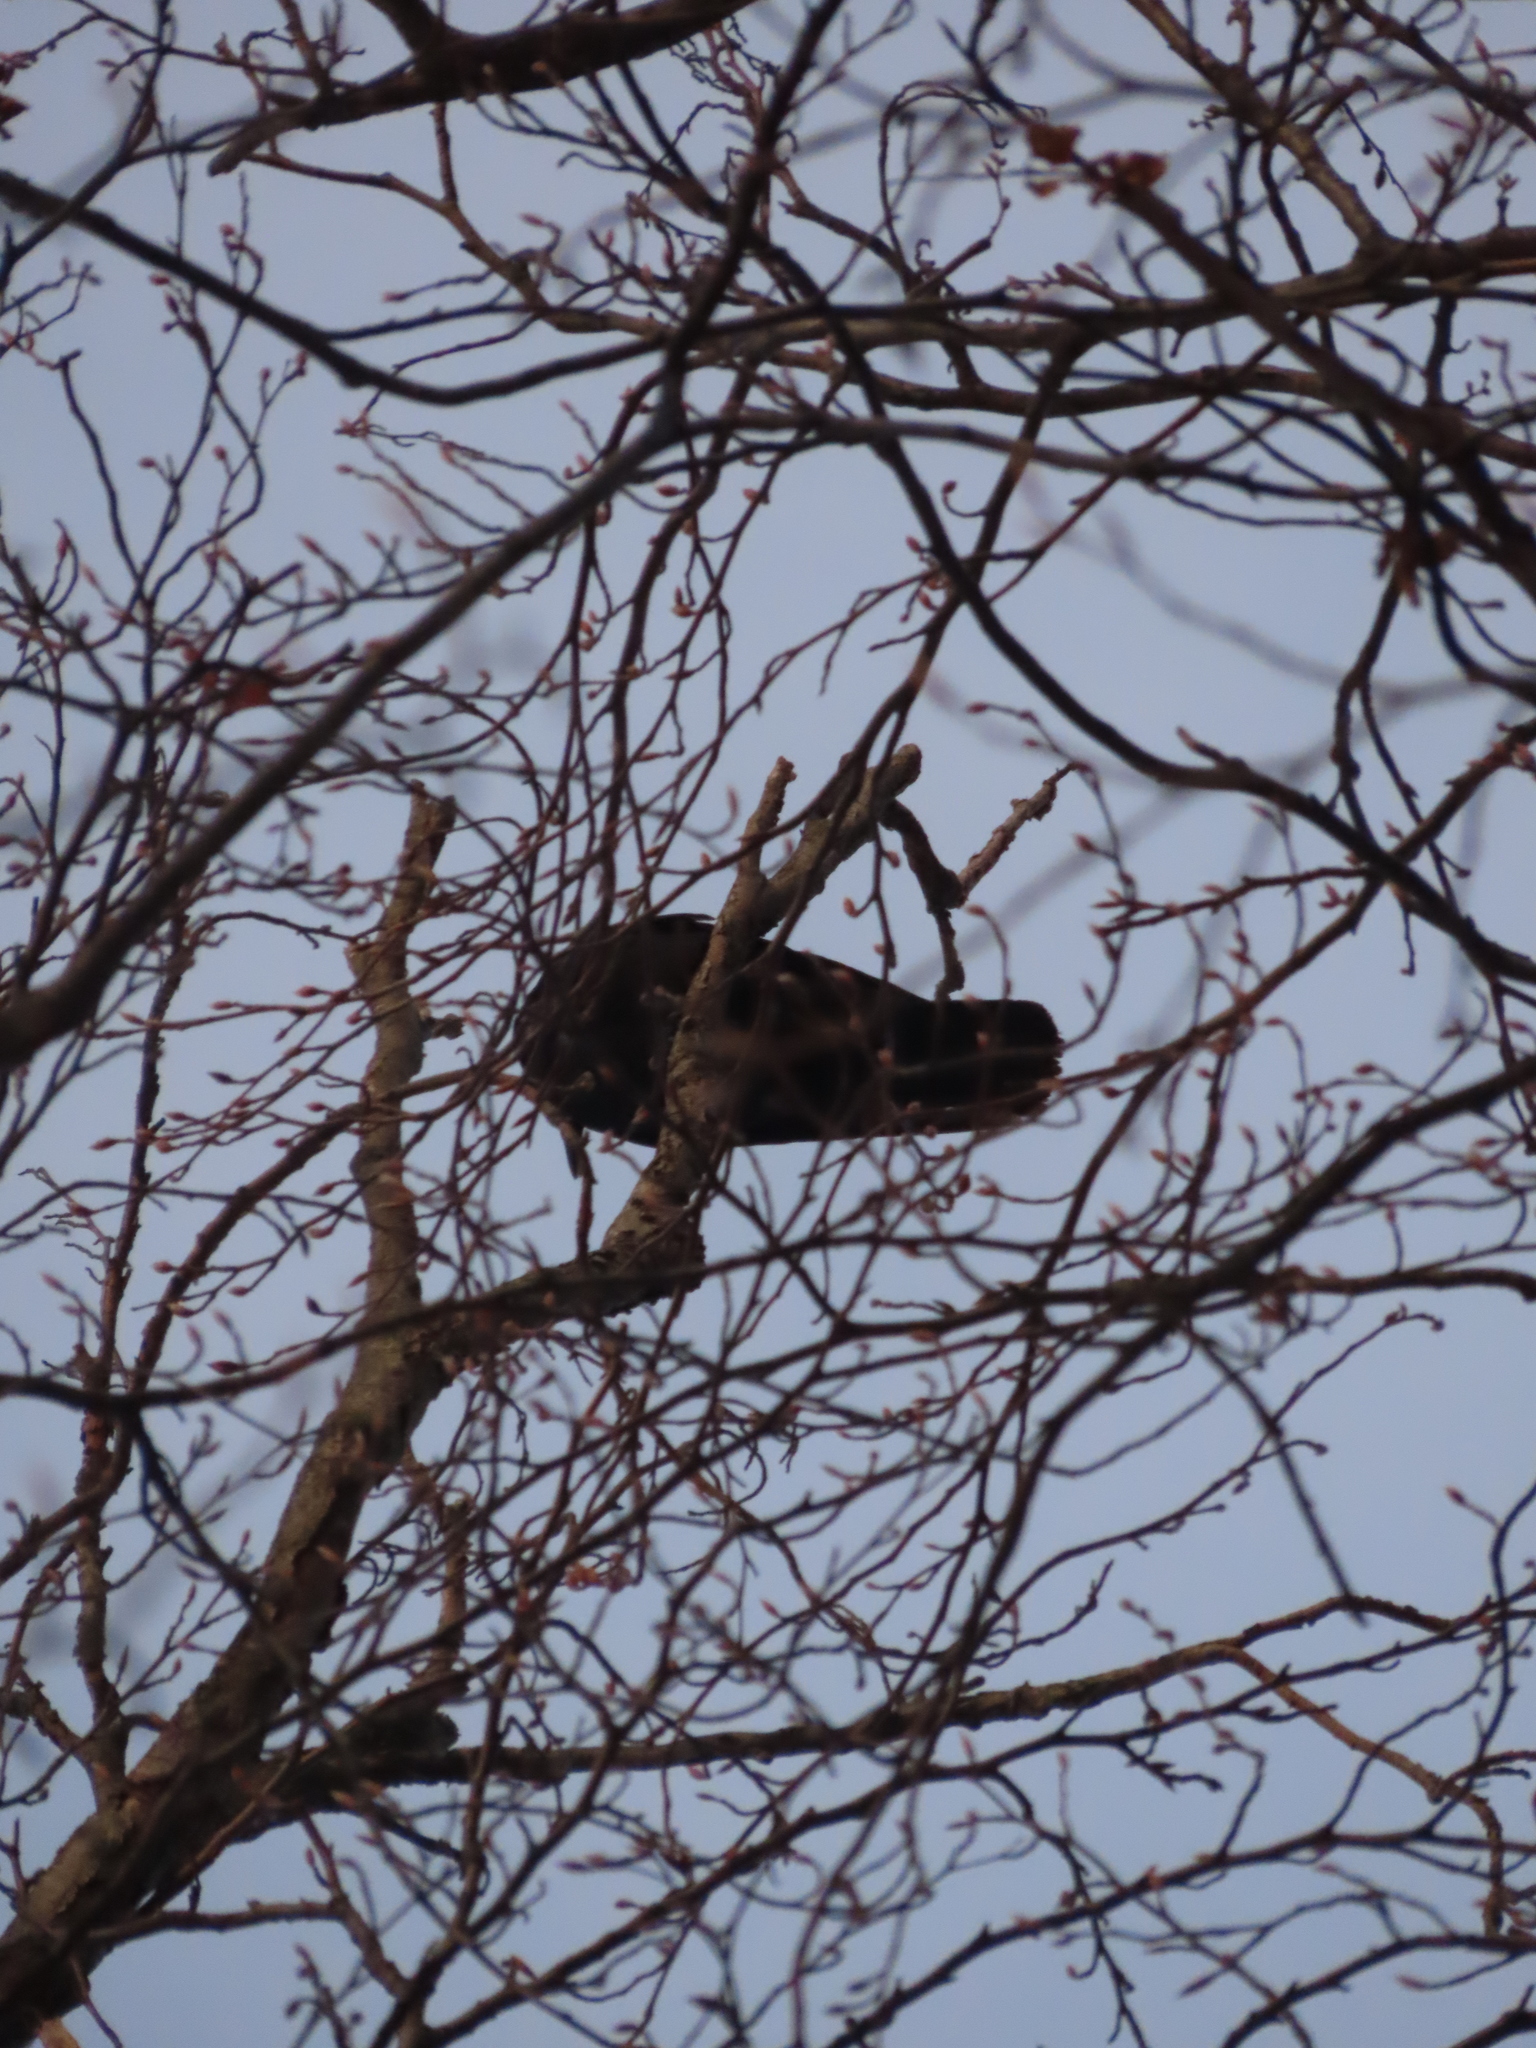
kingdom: Animalia
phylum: Chordata
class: Aves
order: Passeriformes
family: Corvidae
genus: Corvus
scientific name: Corvus
